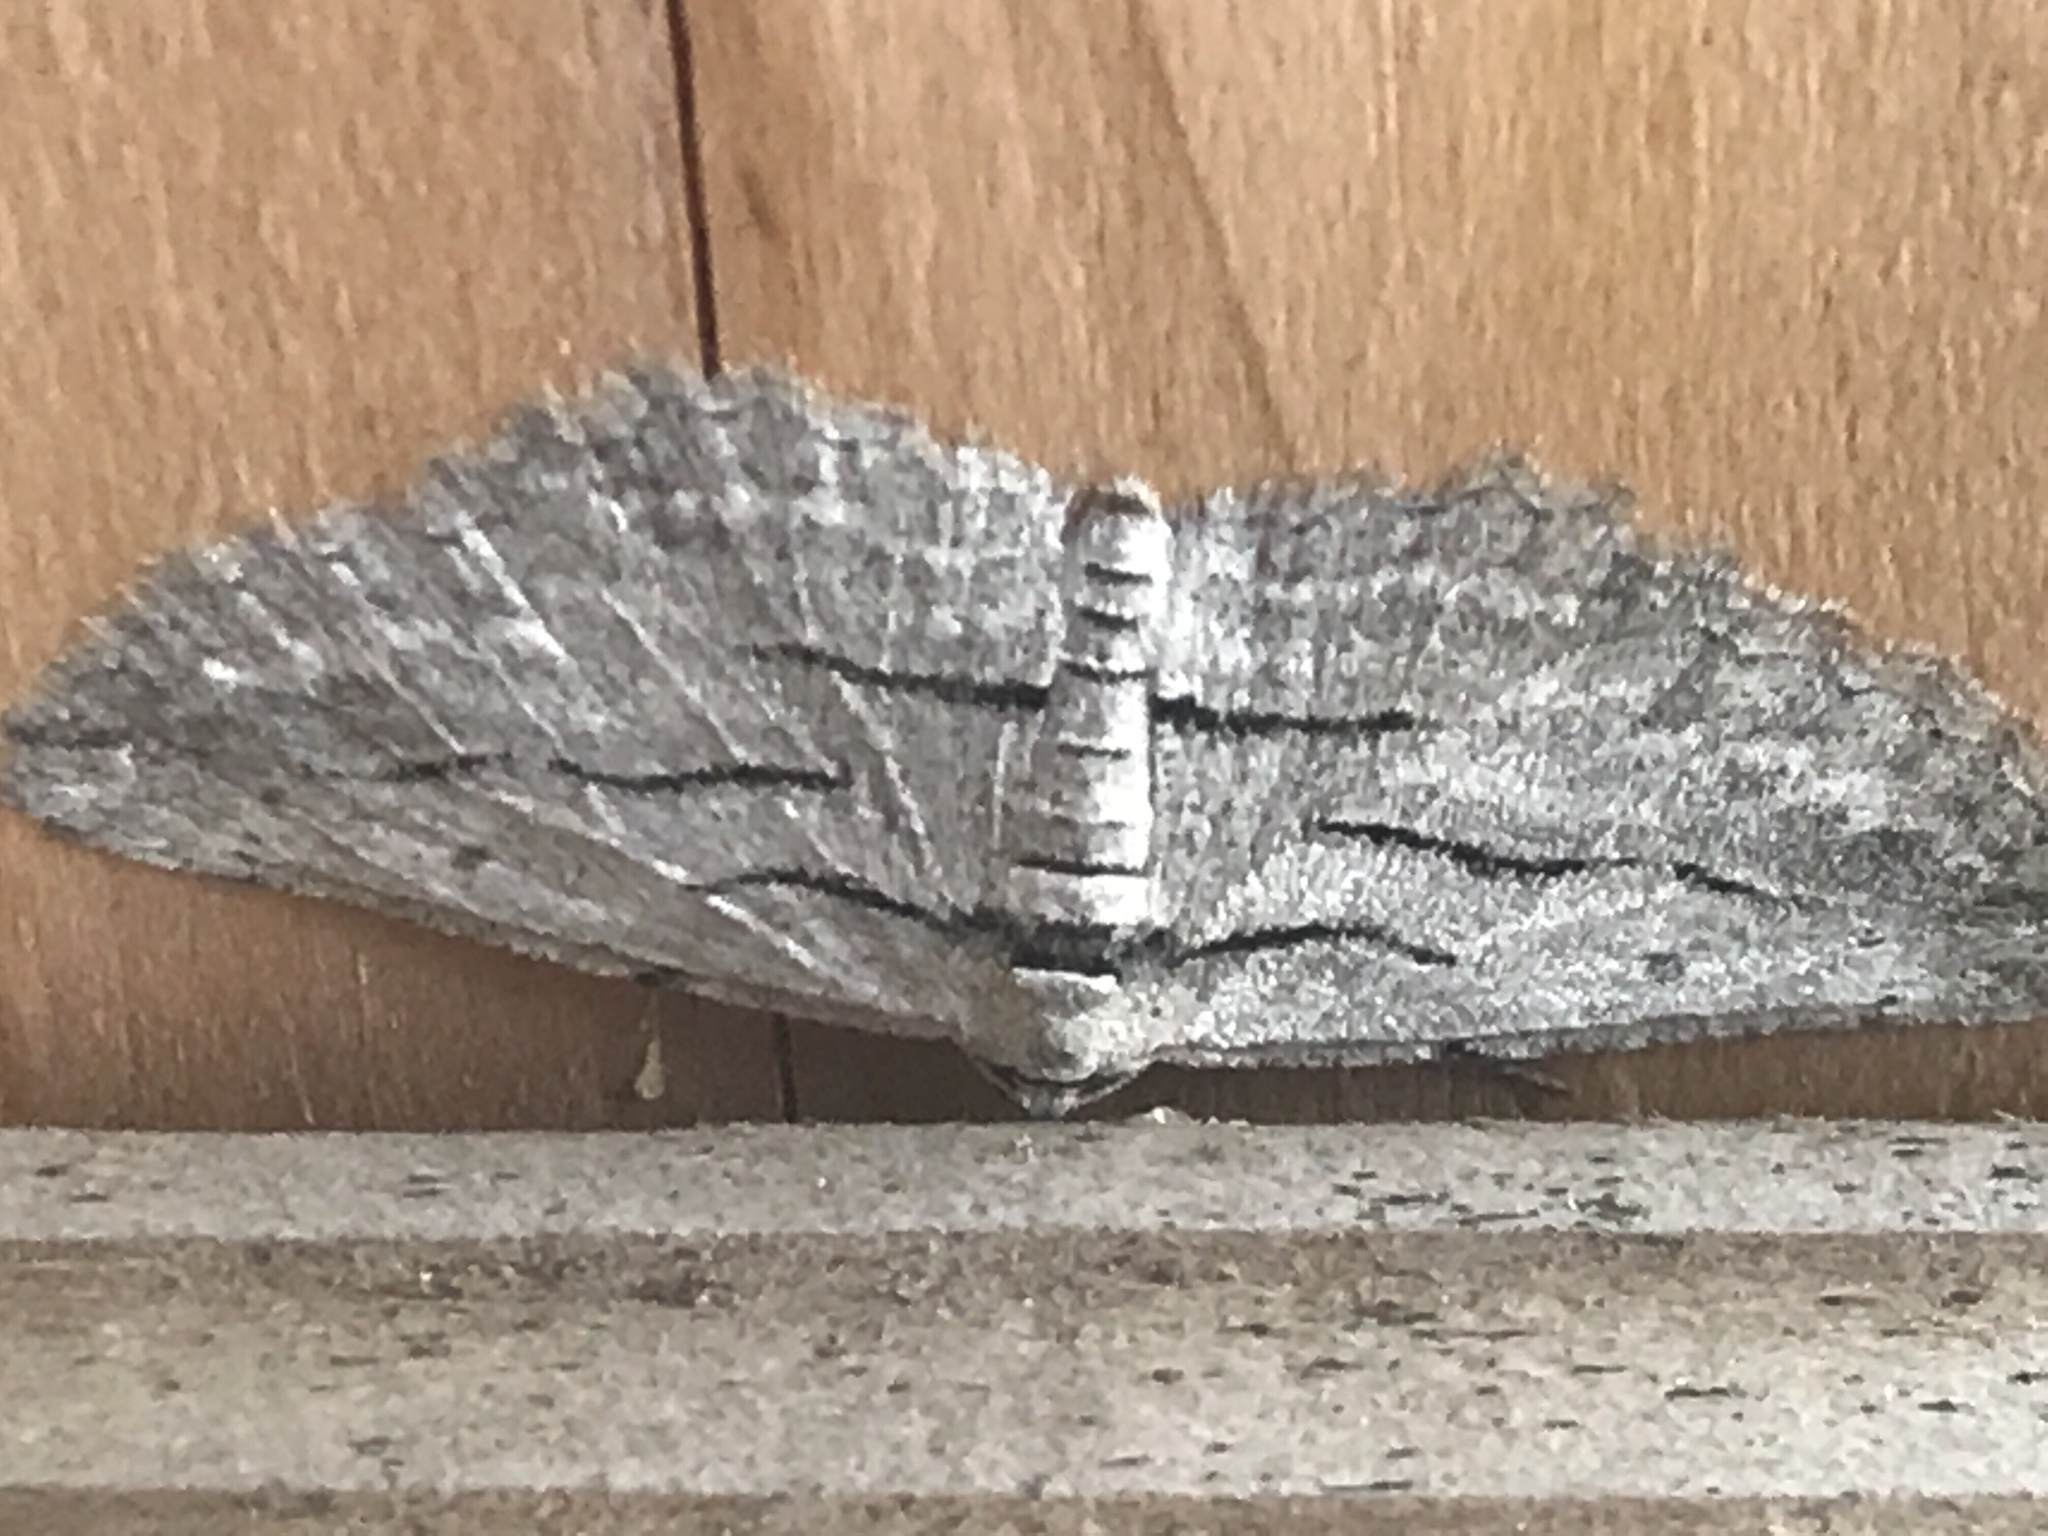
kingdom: Animalia
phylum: Arthropoda
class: Insecta
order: Lepidoptera
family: Geometridae
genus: Glena
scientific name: Glena quinquelinearia
